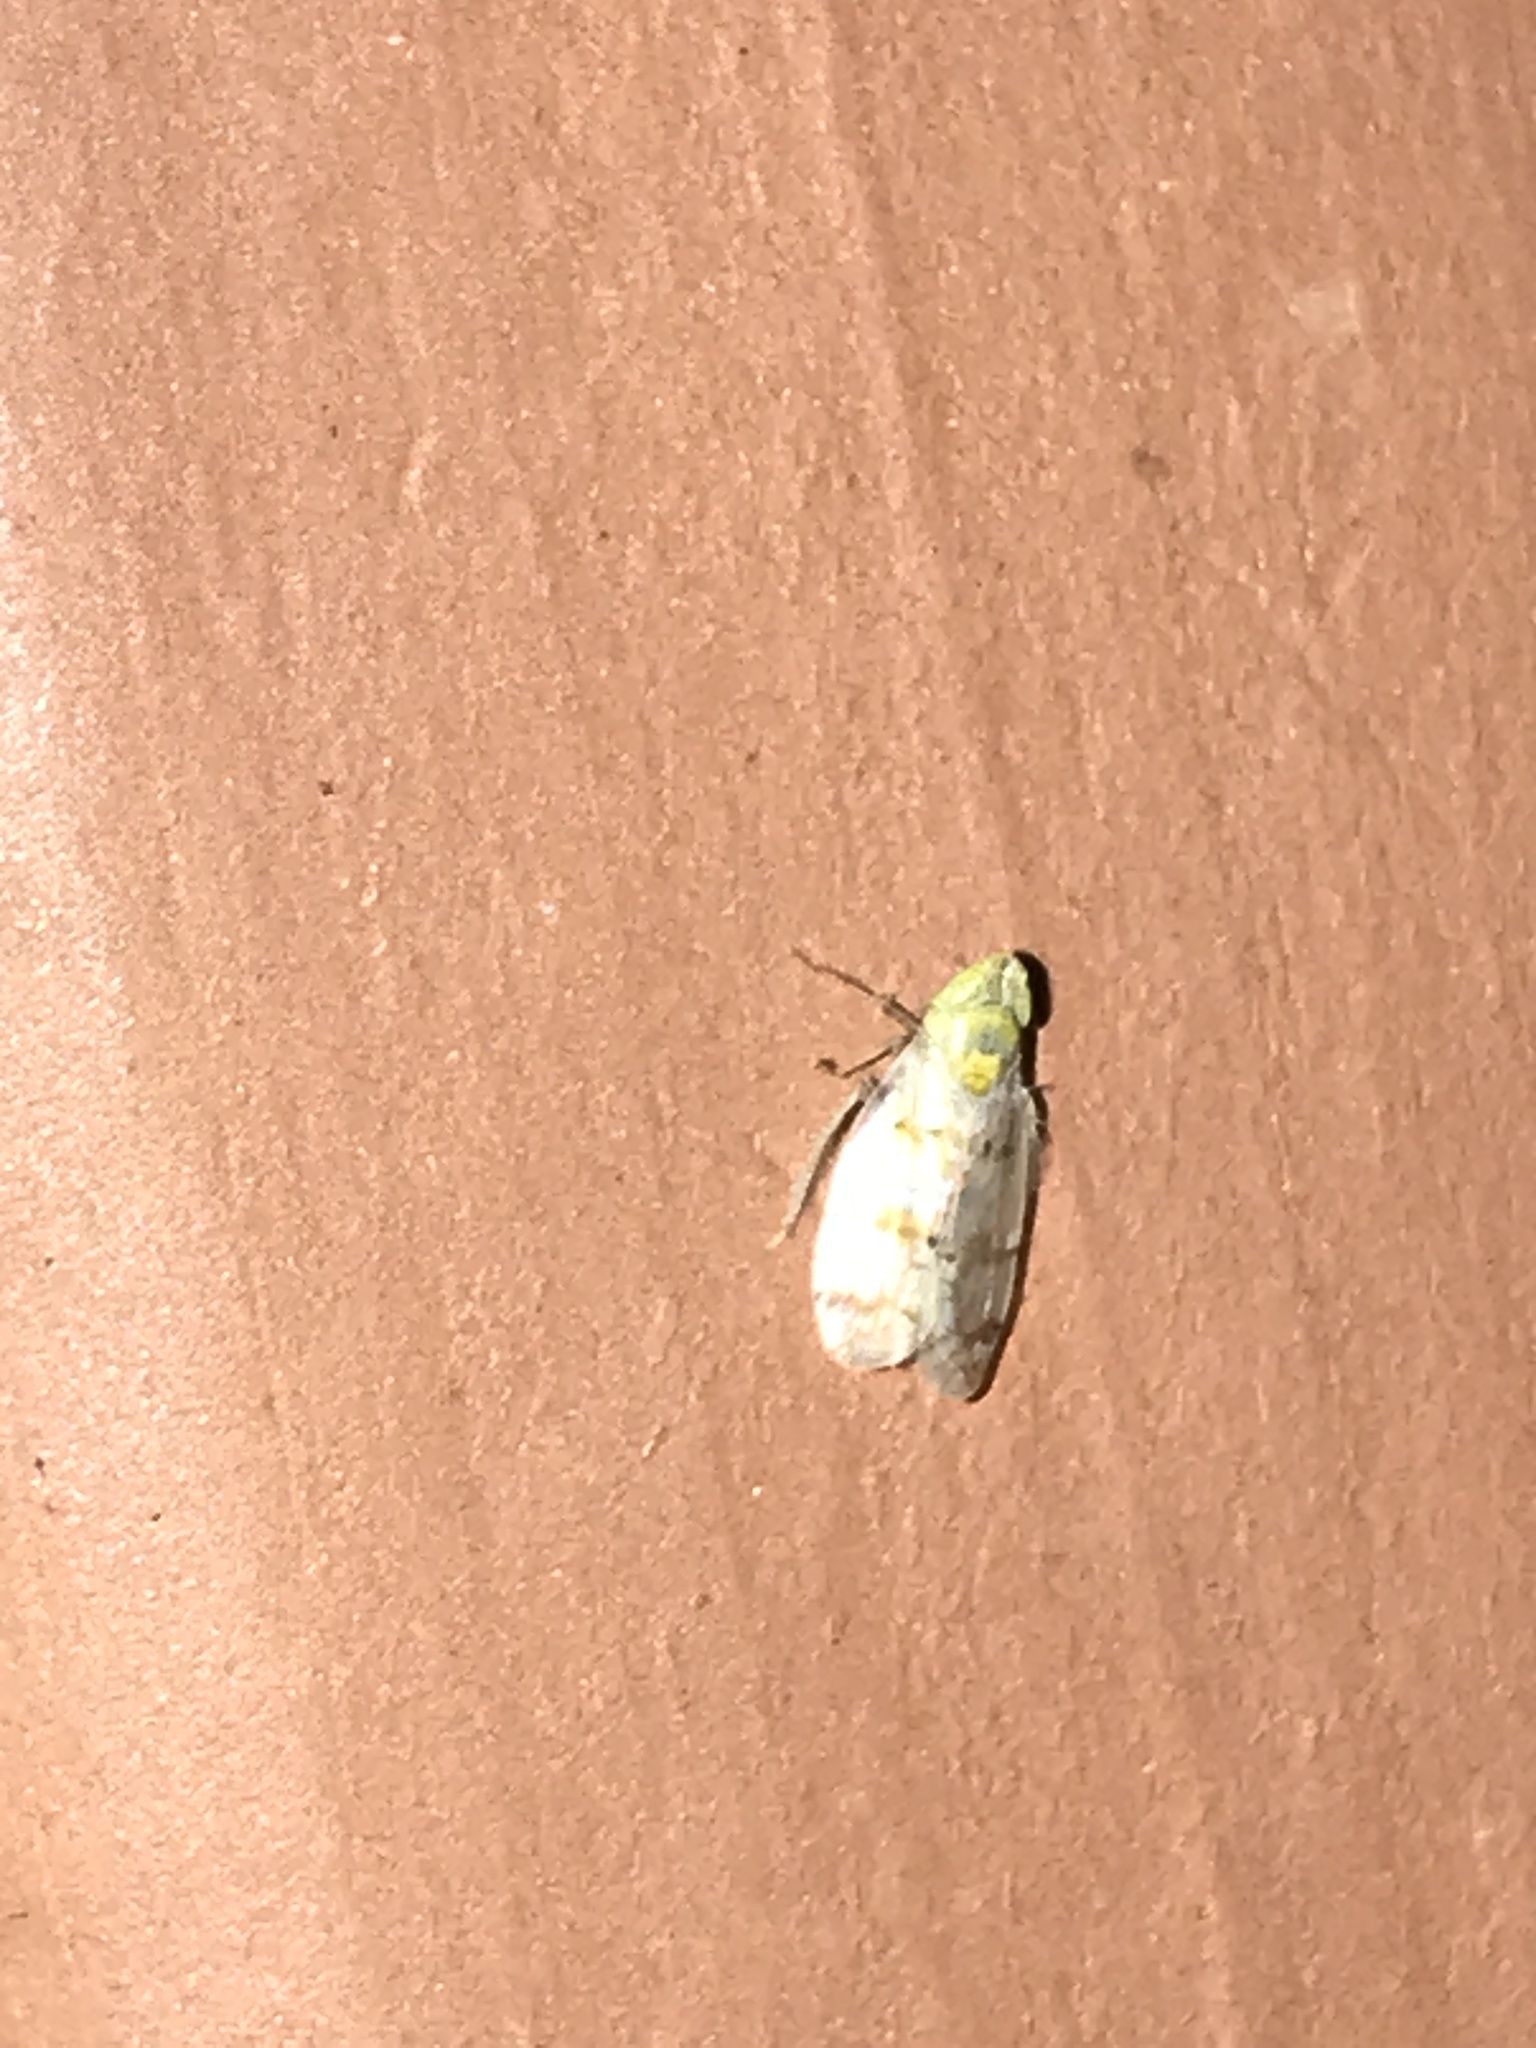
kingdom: Animalia
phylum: Arthropoda
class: Insecta
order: Hemiptera
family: Cicadellidae
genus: Japananus
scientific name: Japananus hyalinus
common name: The japanese maple leafhopper
